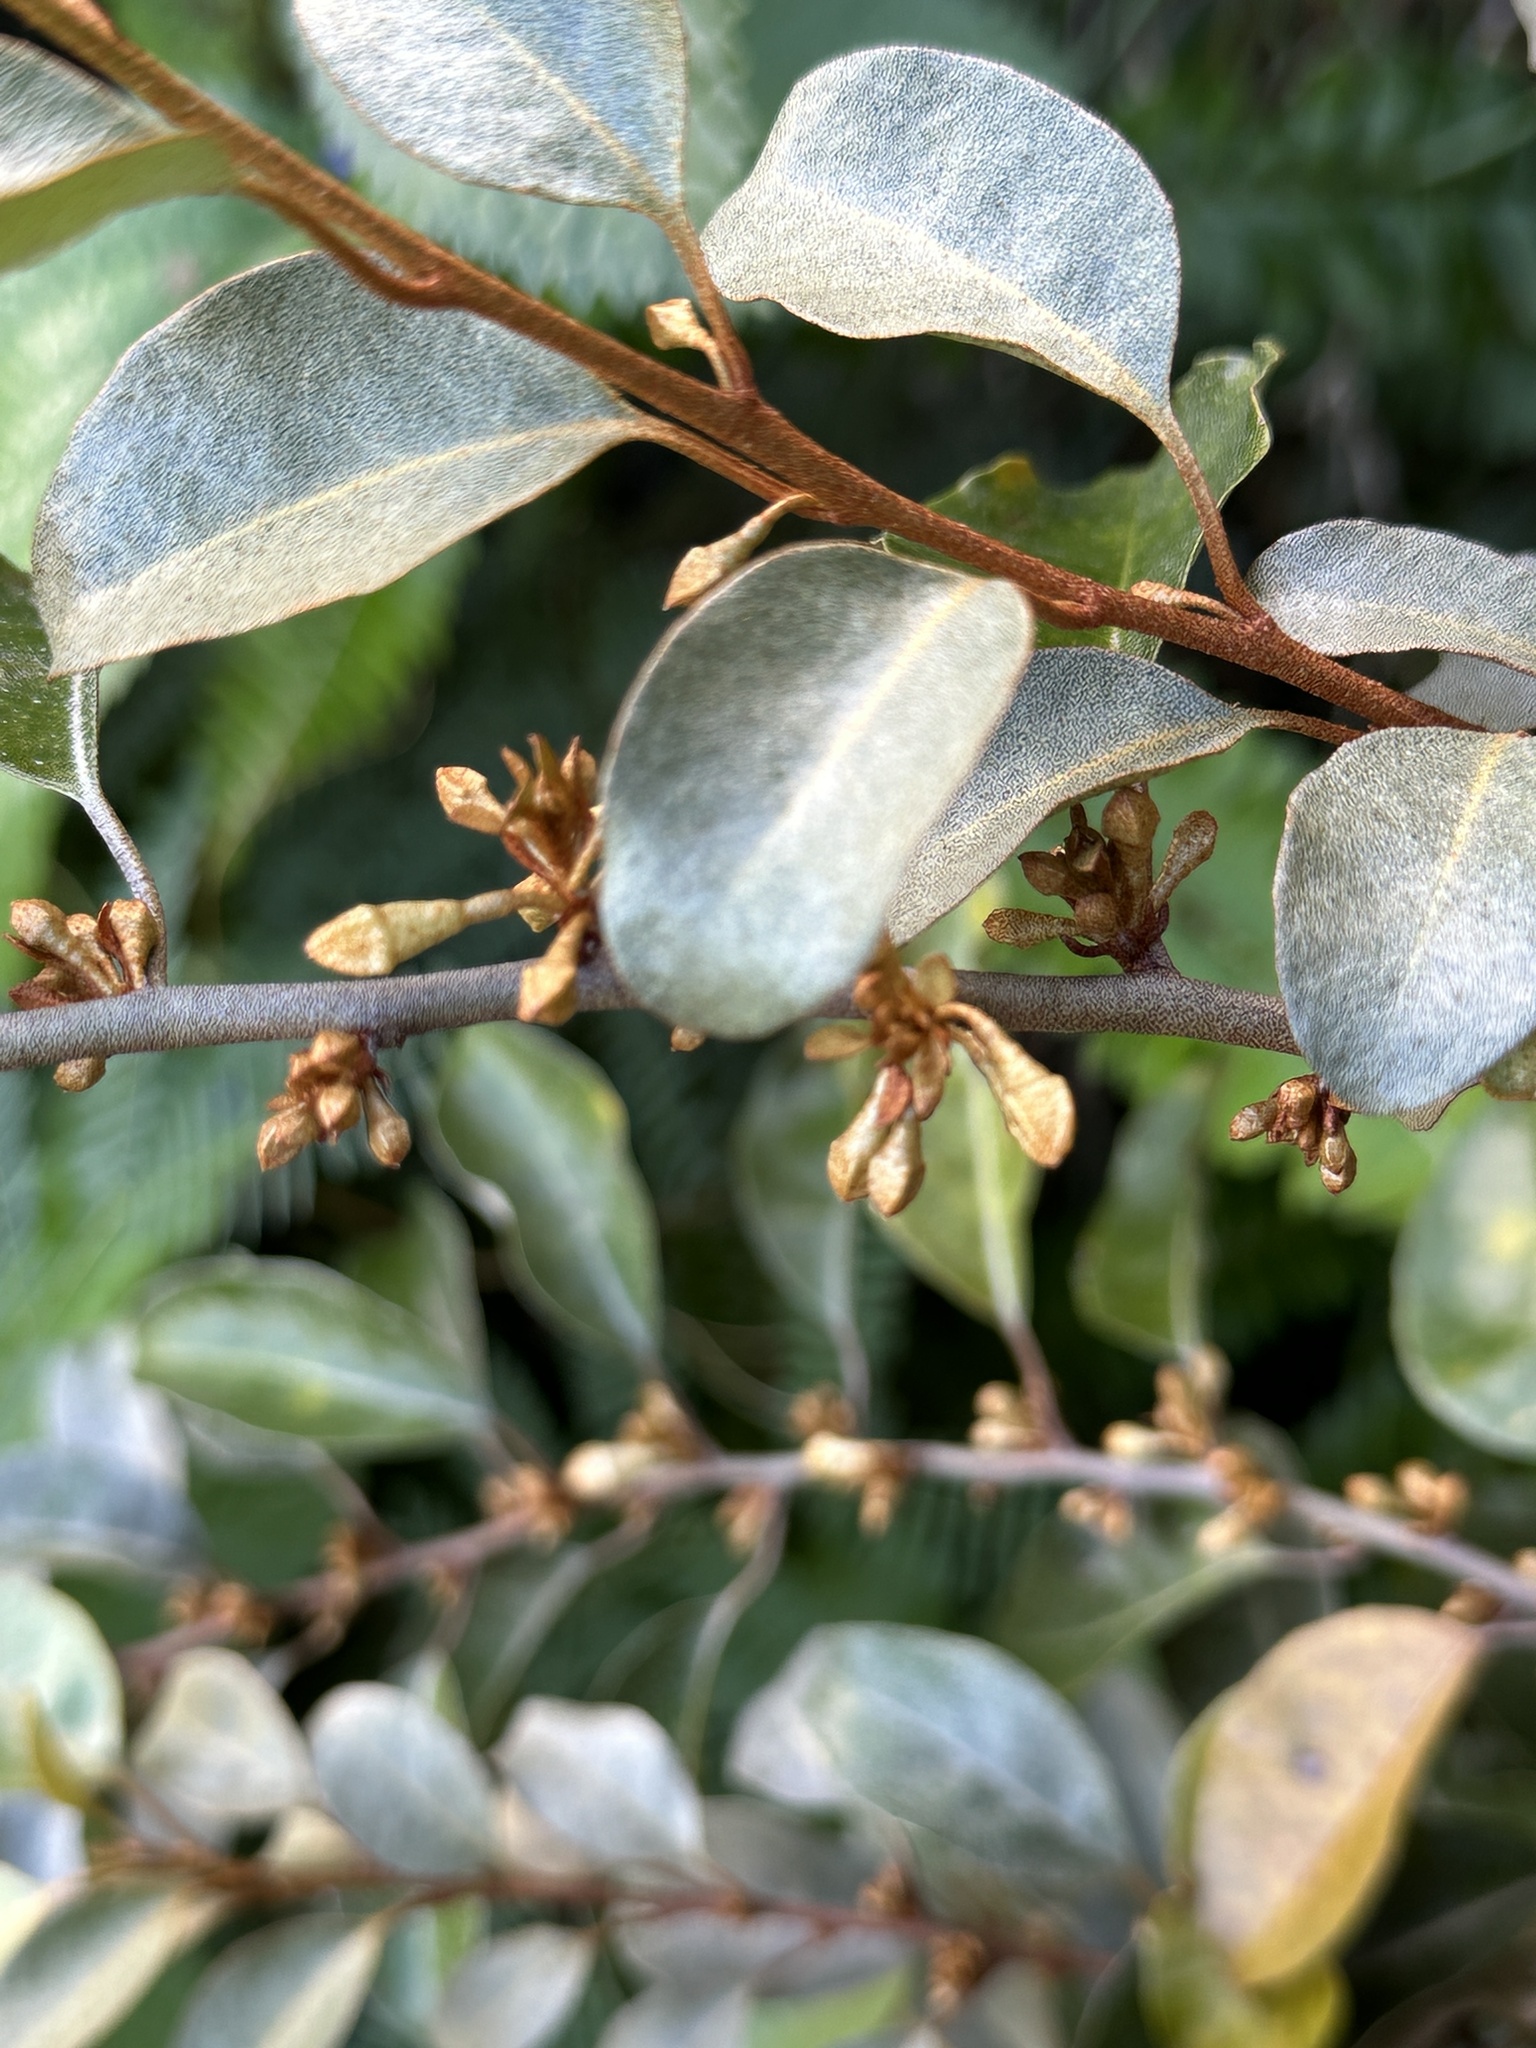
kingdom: Plantae
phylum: Tracheophyta
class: Magnoliopsida
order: Rosales
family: Elaeagnaceae
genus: Elaeagnus
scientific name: Elaeagnus rotundata
